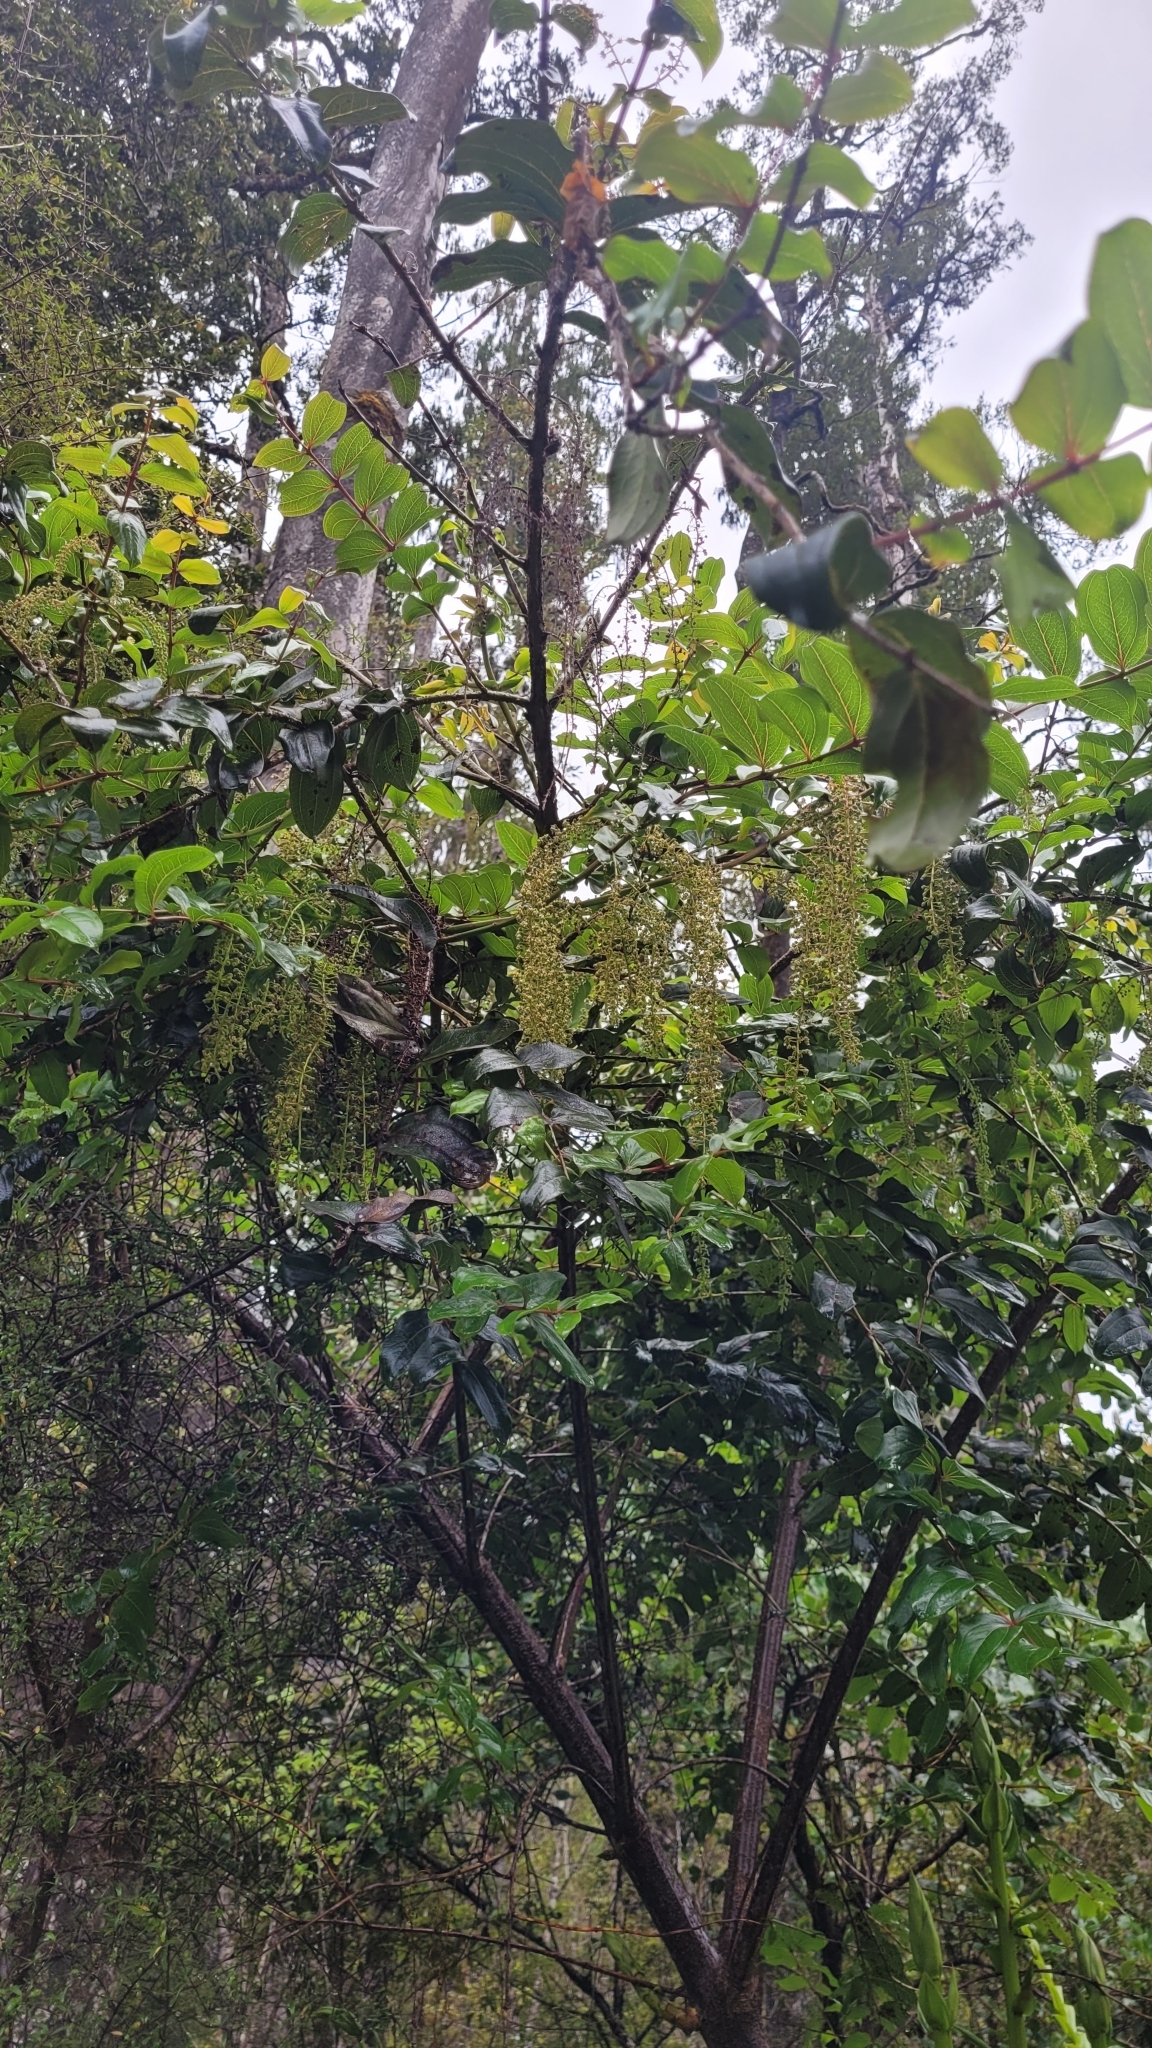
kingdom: Plantae
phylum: Tracheophyta
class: Magnoliopsida
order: Cucurbitales
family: Coriariaceae
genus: Coriaria
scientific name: Coriaria arborea
